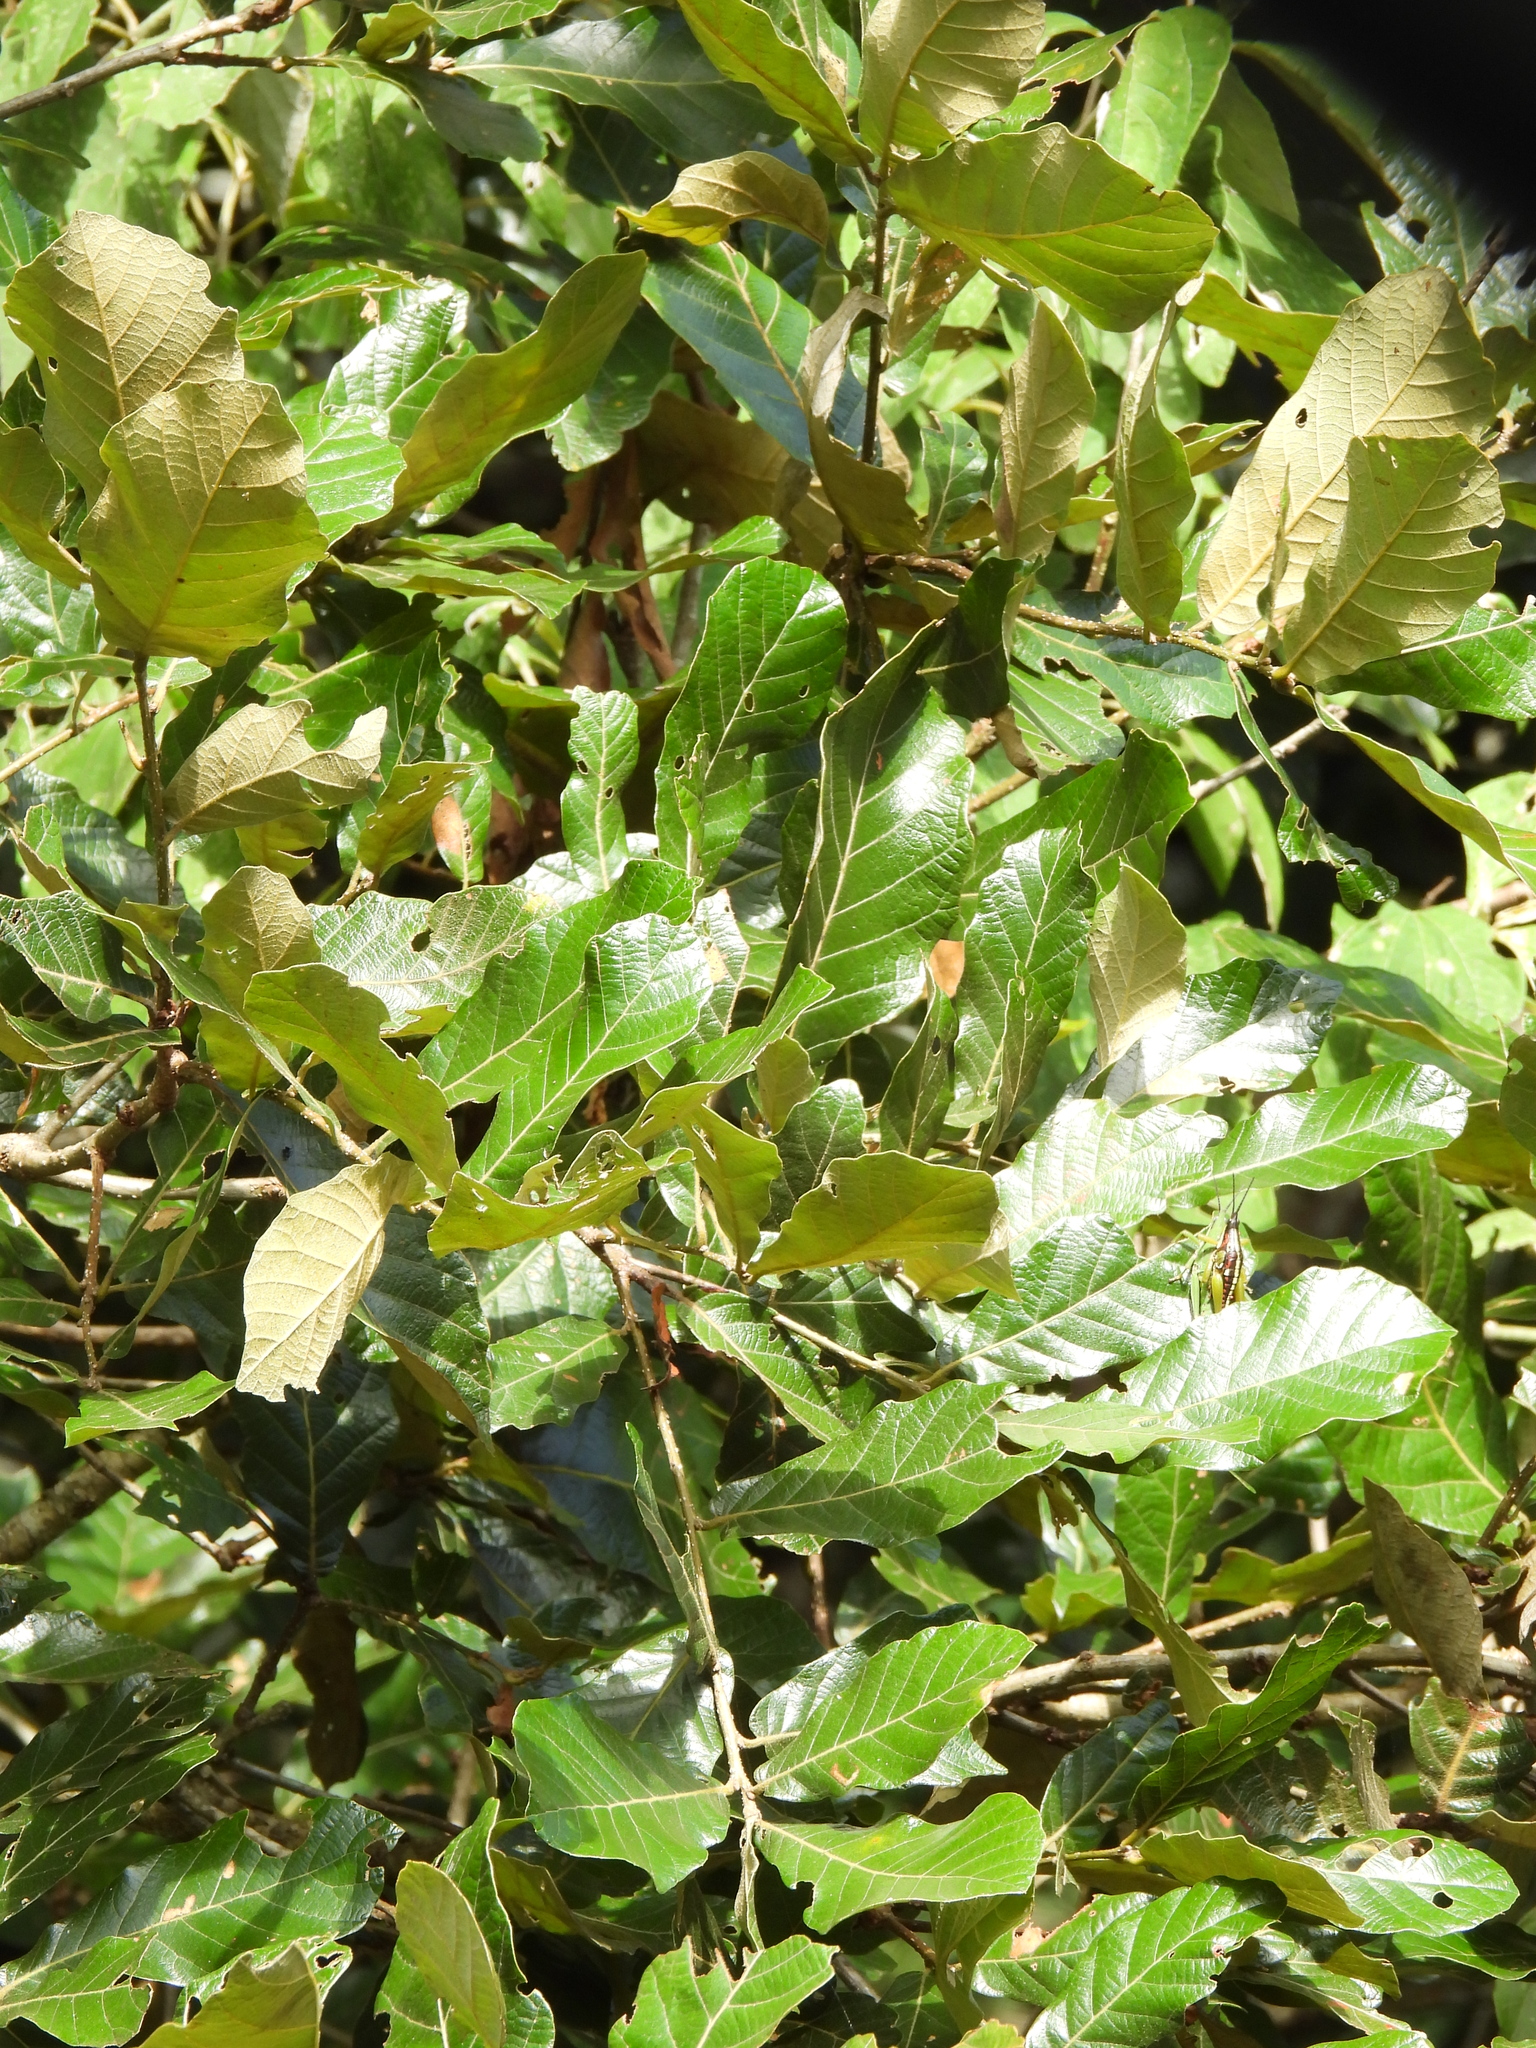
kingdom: Plantae
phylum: Tracheophyta
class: Magnoliopsida
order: Fagales
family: Fagaceae
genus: Quercus
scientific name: Quercus purulhana
